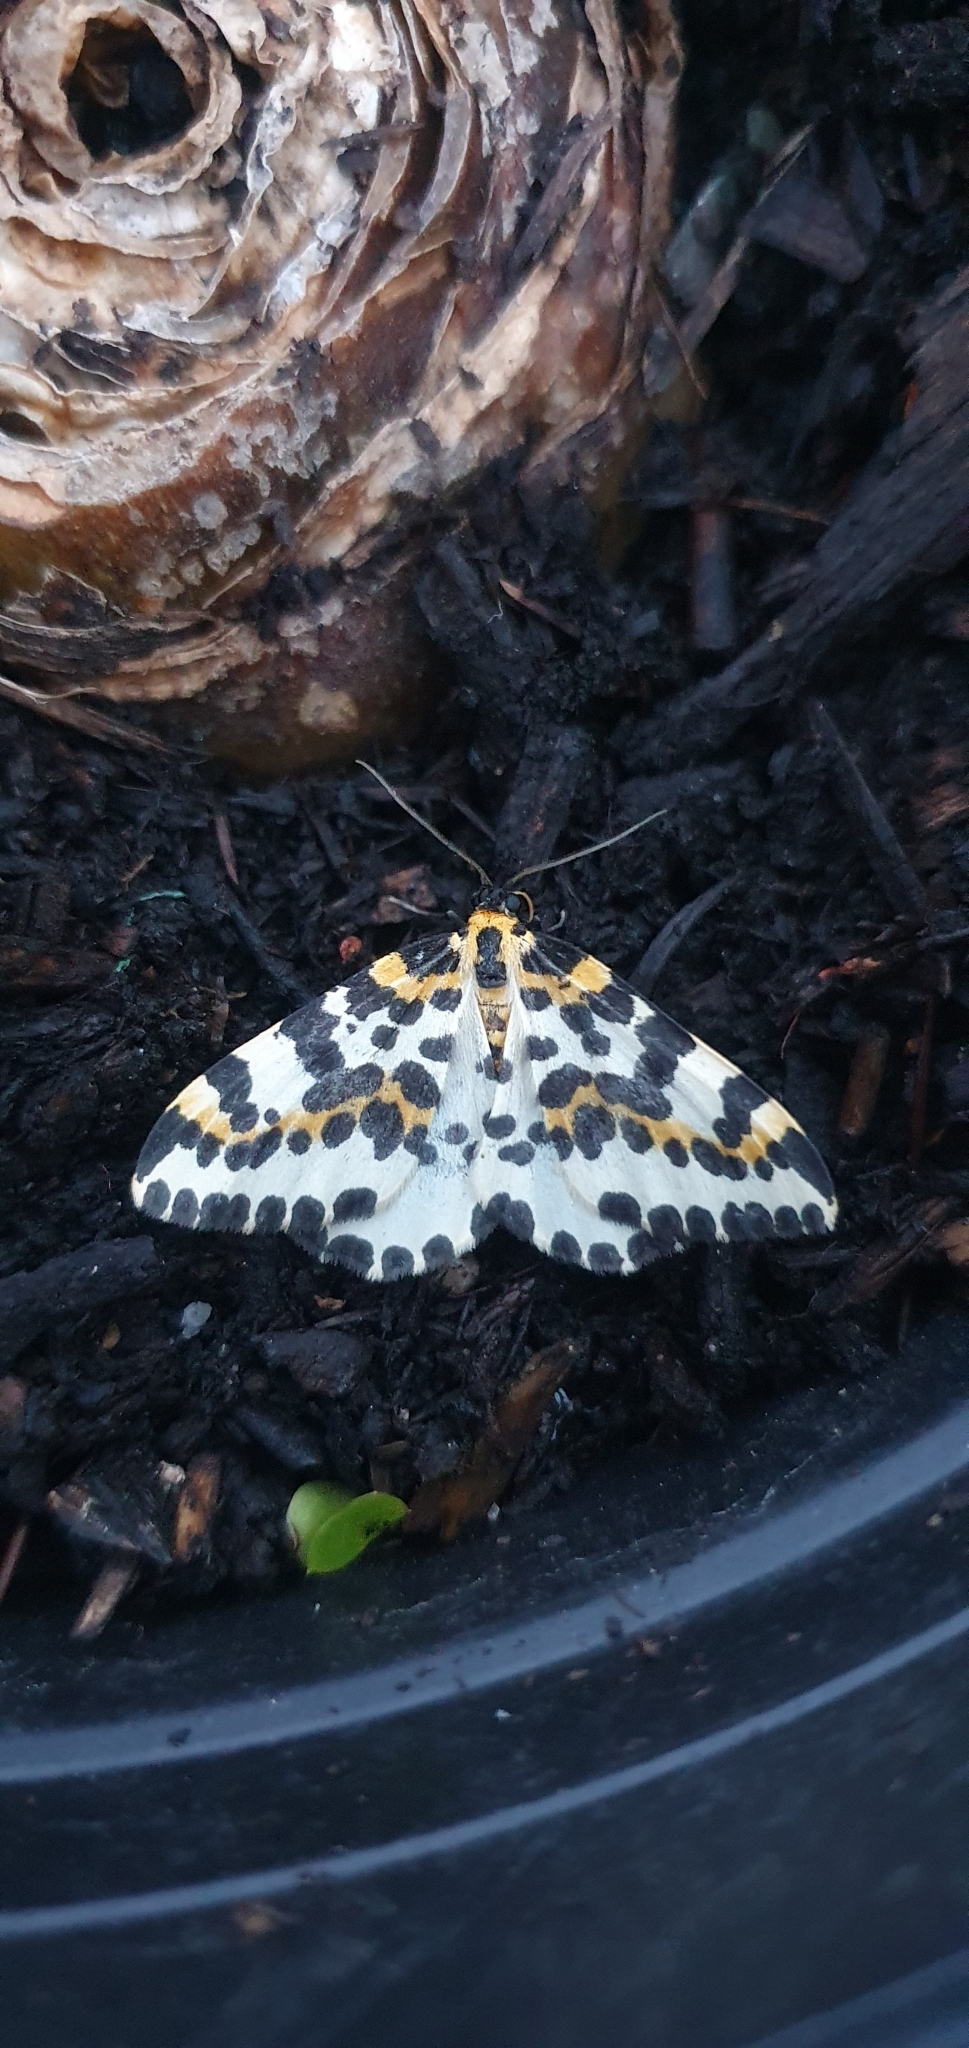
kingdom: Animalia
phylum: Arthropoda
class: Insecta
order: Lepidoptera
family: Geometridae
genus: Abraxas
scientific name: Abraxas grossulariata
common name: Magpie
